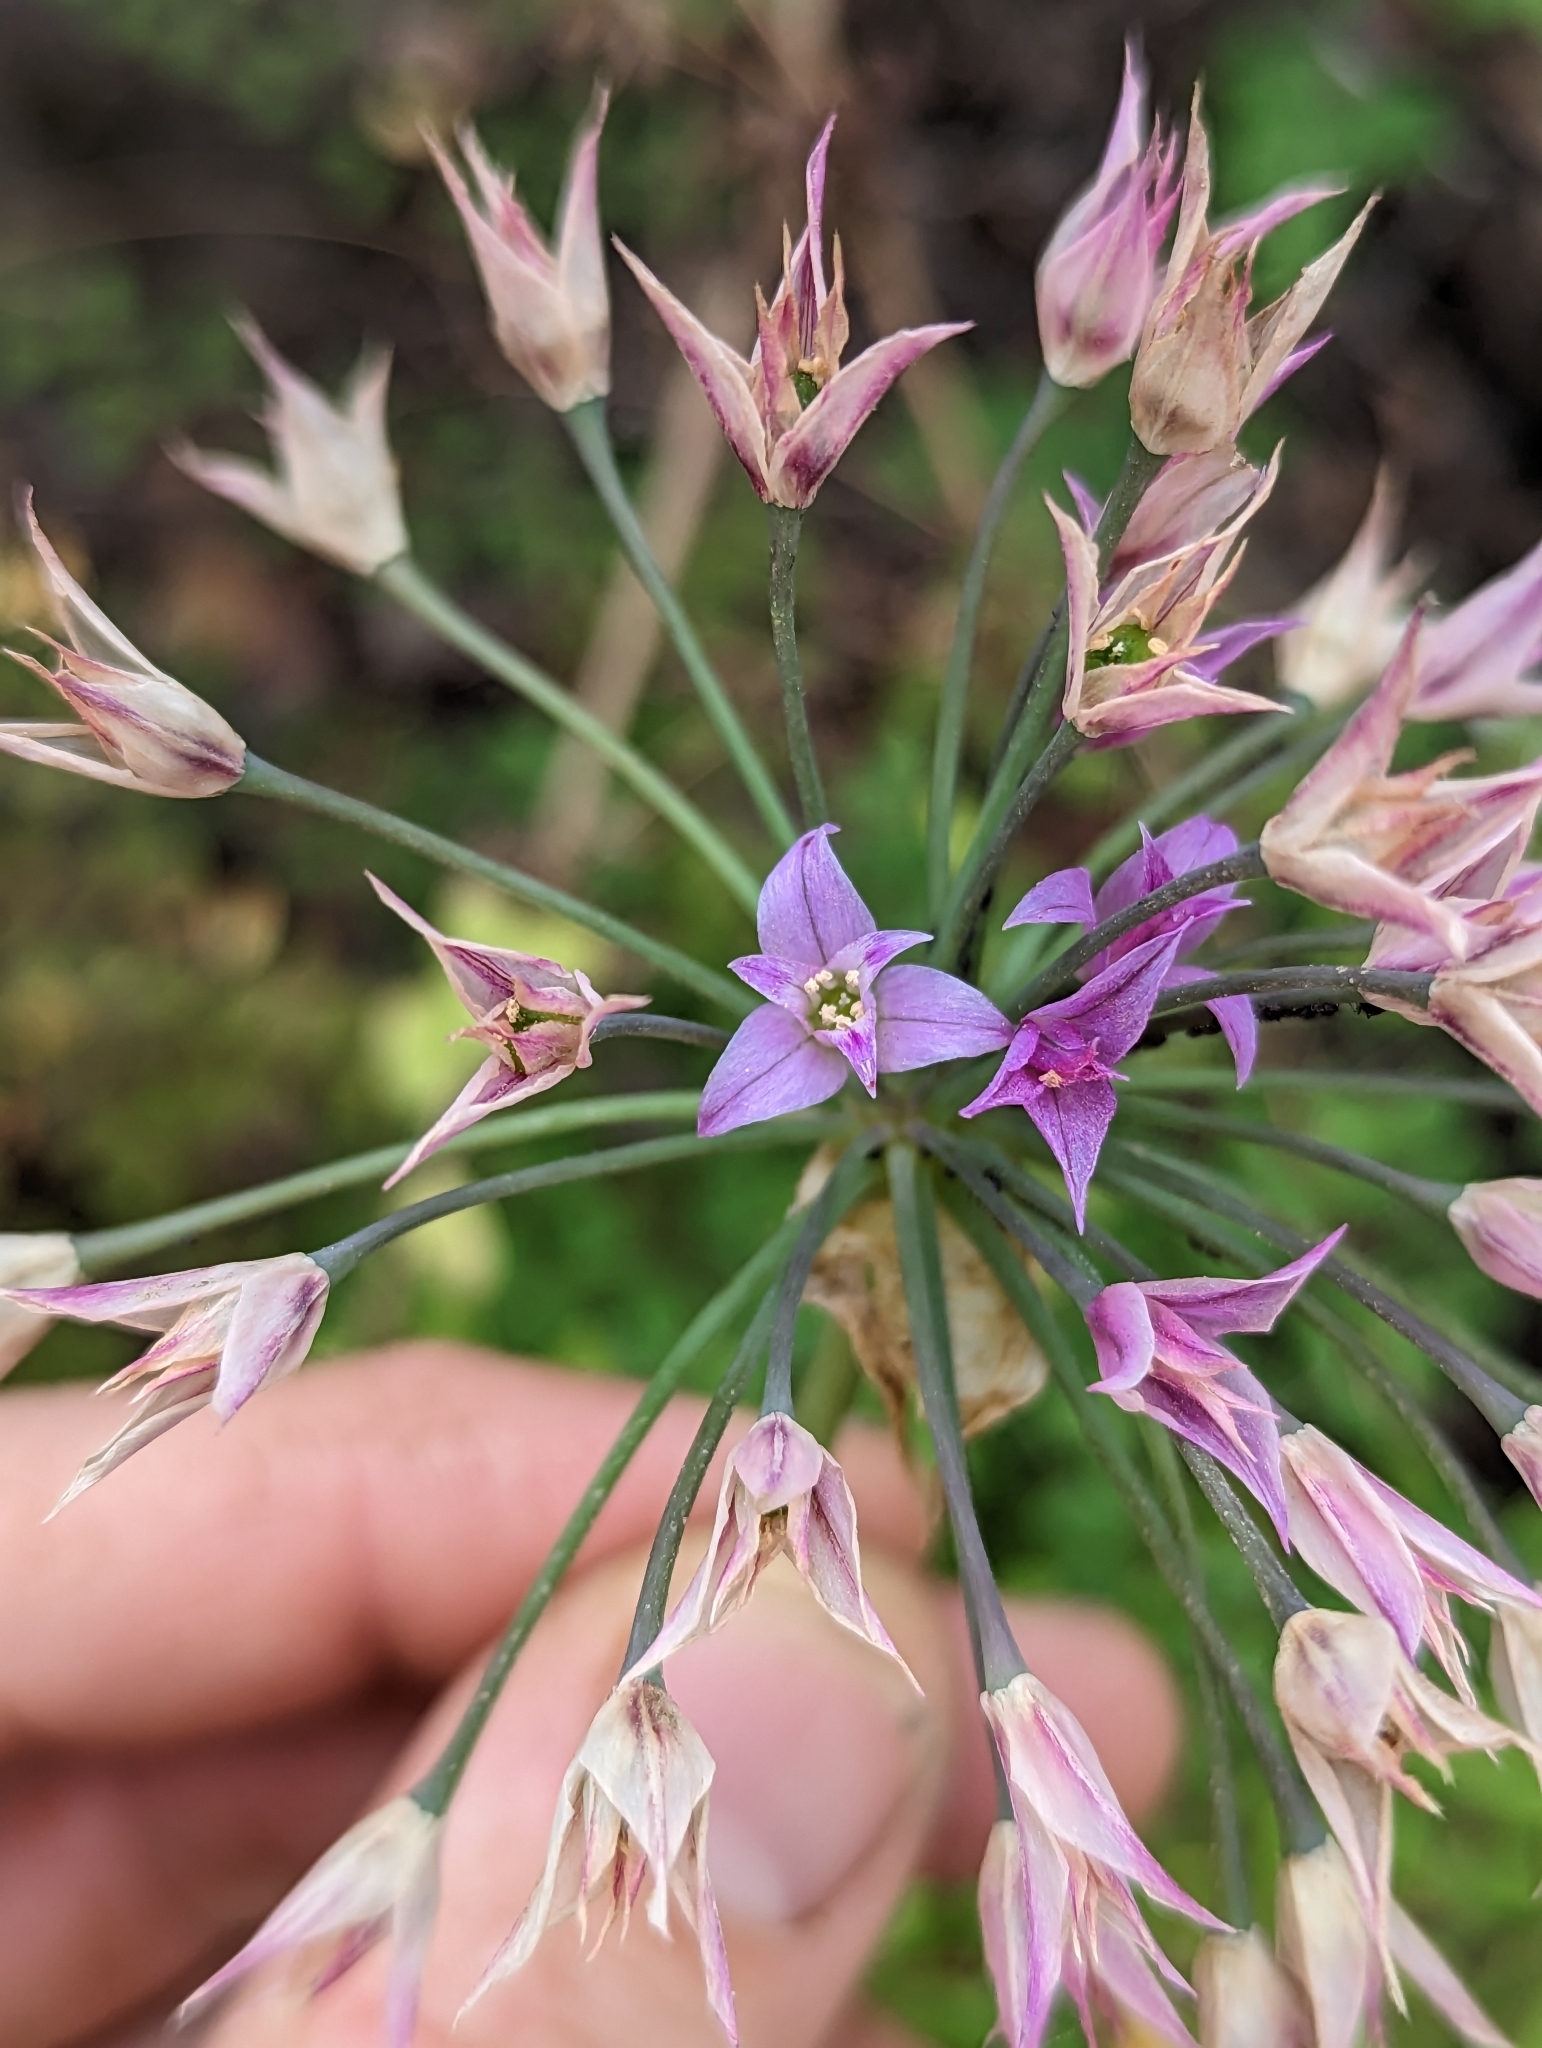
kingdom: Plantae
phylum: Tracheophyta
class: Liliopsida
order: Asparagales
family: Amaryllidaceae
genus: Allium
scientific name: Allium peninsulare
